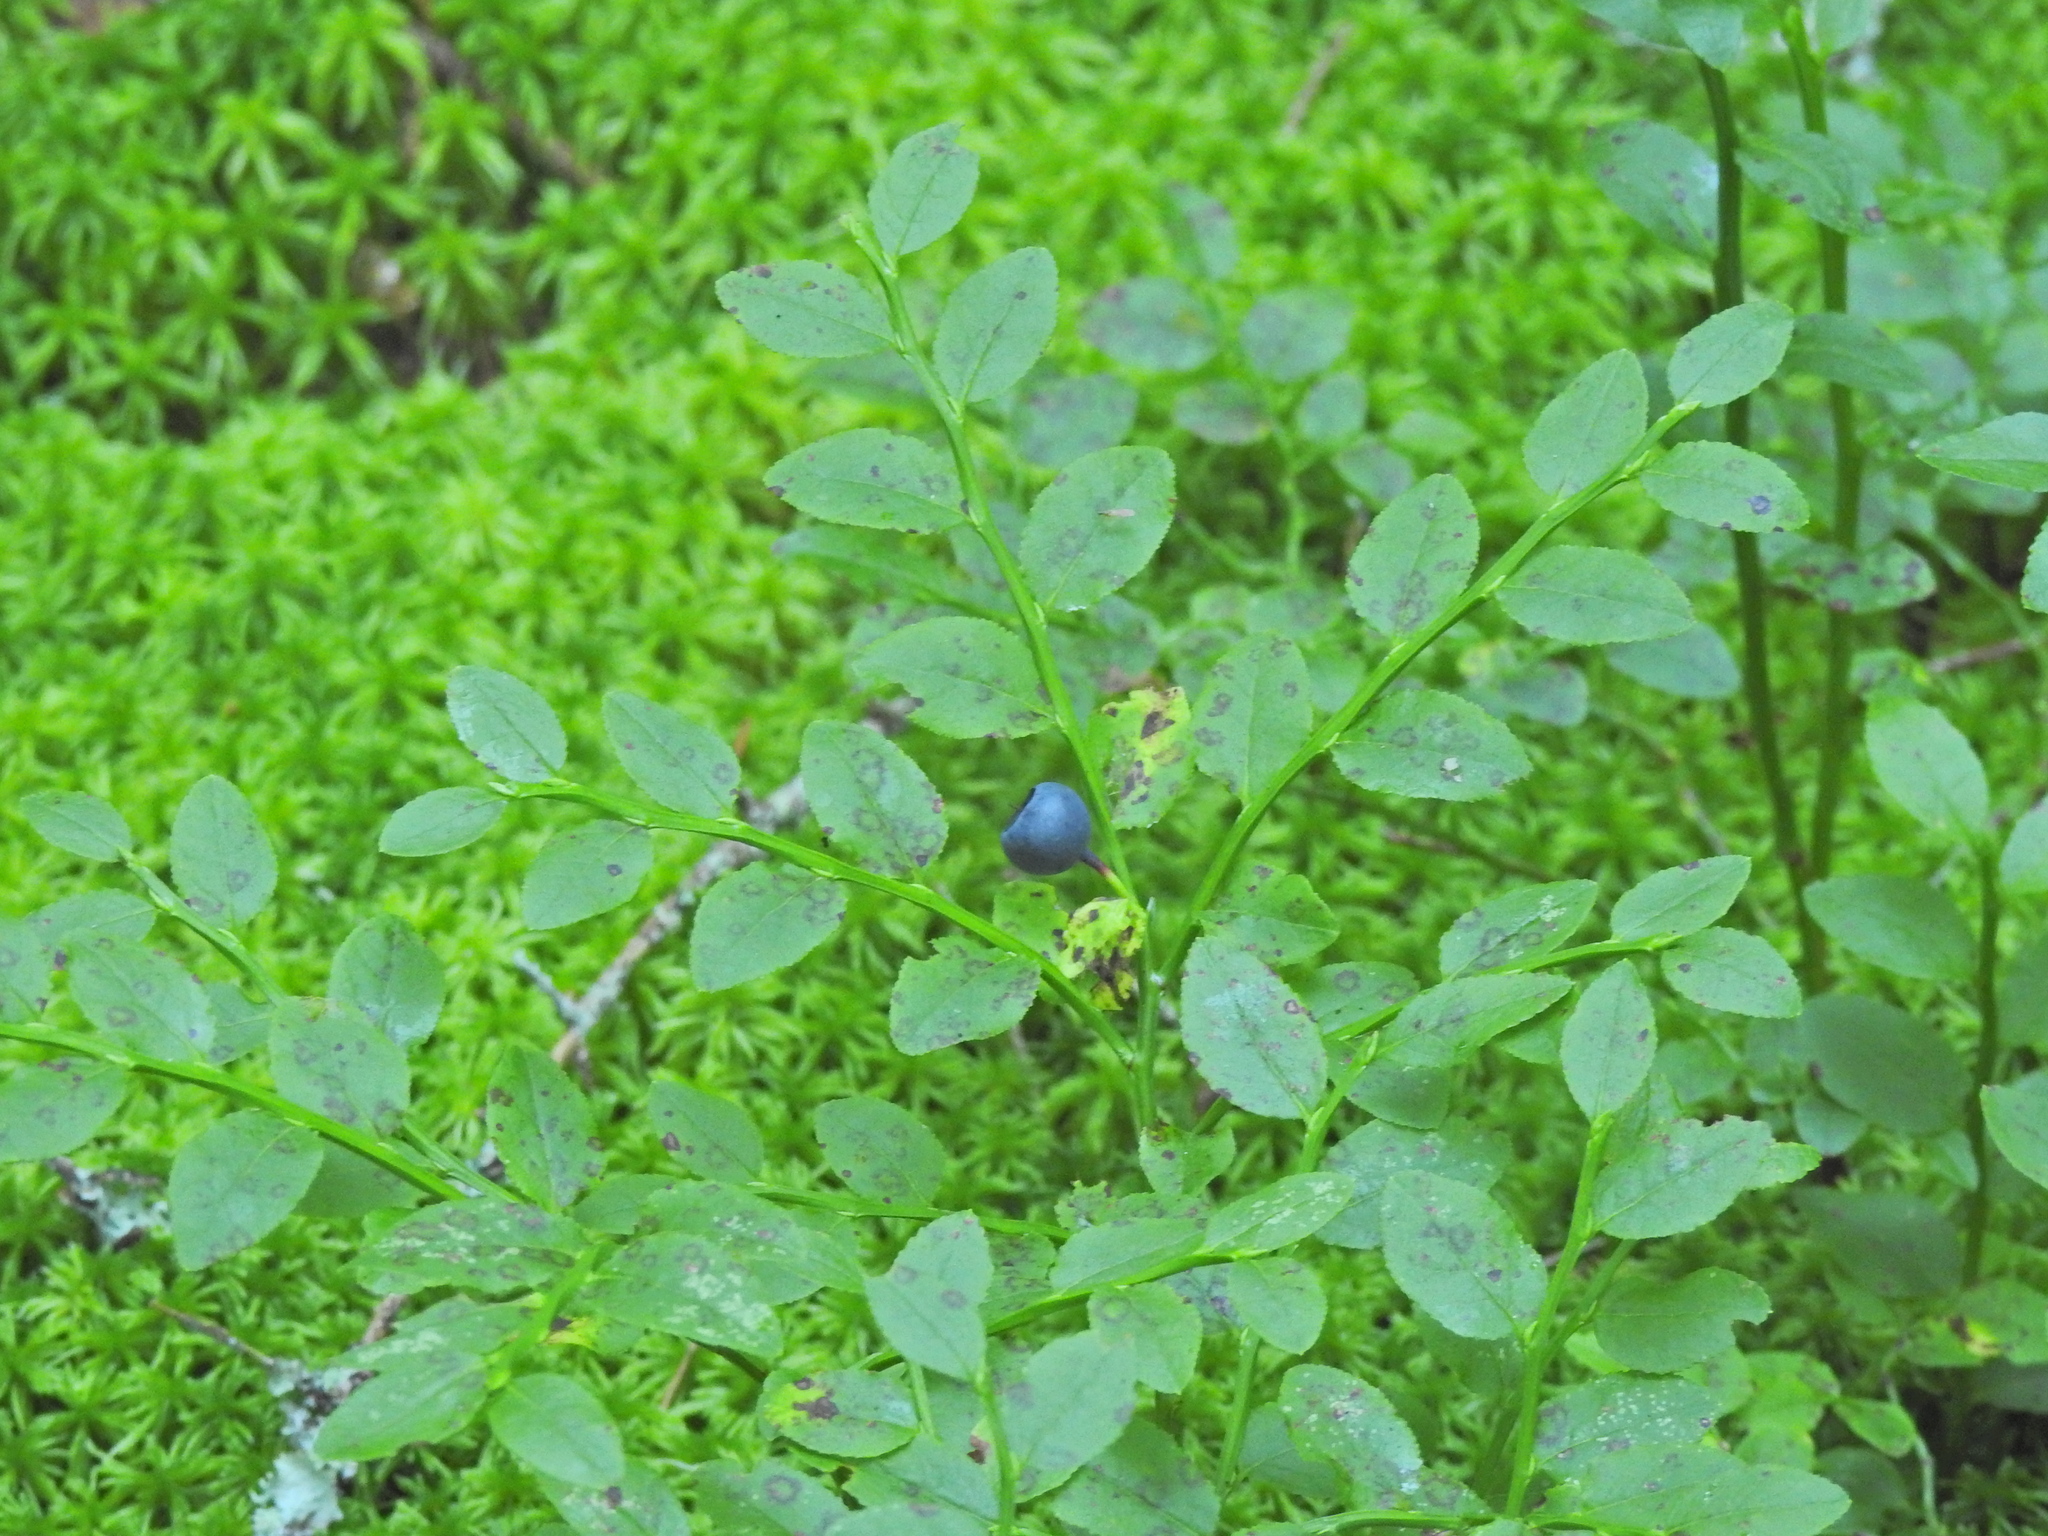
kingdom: Plantae
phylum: Tracheophyta
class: Magnoliopsida
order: Ericales
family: Ericaceae
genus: Vaccinium
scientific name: Vaccinium myrtillus
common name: Bilberry
